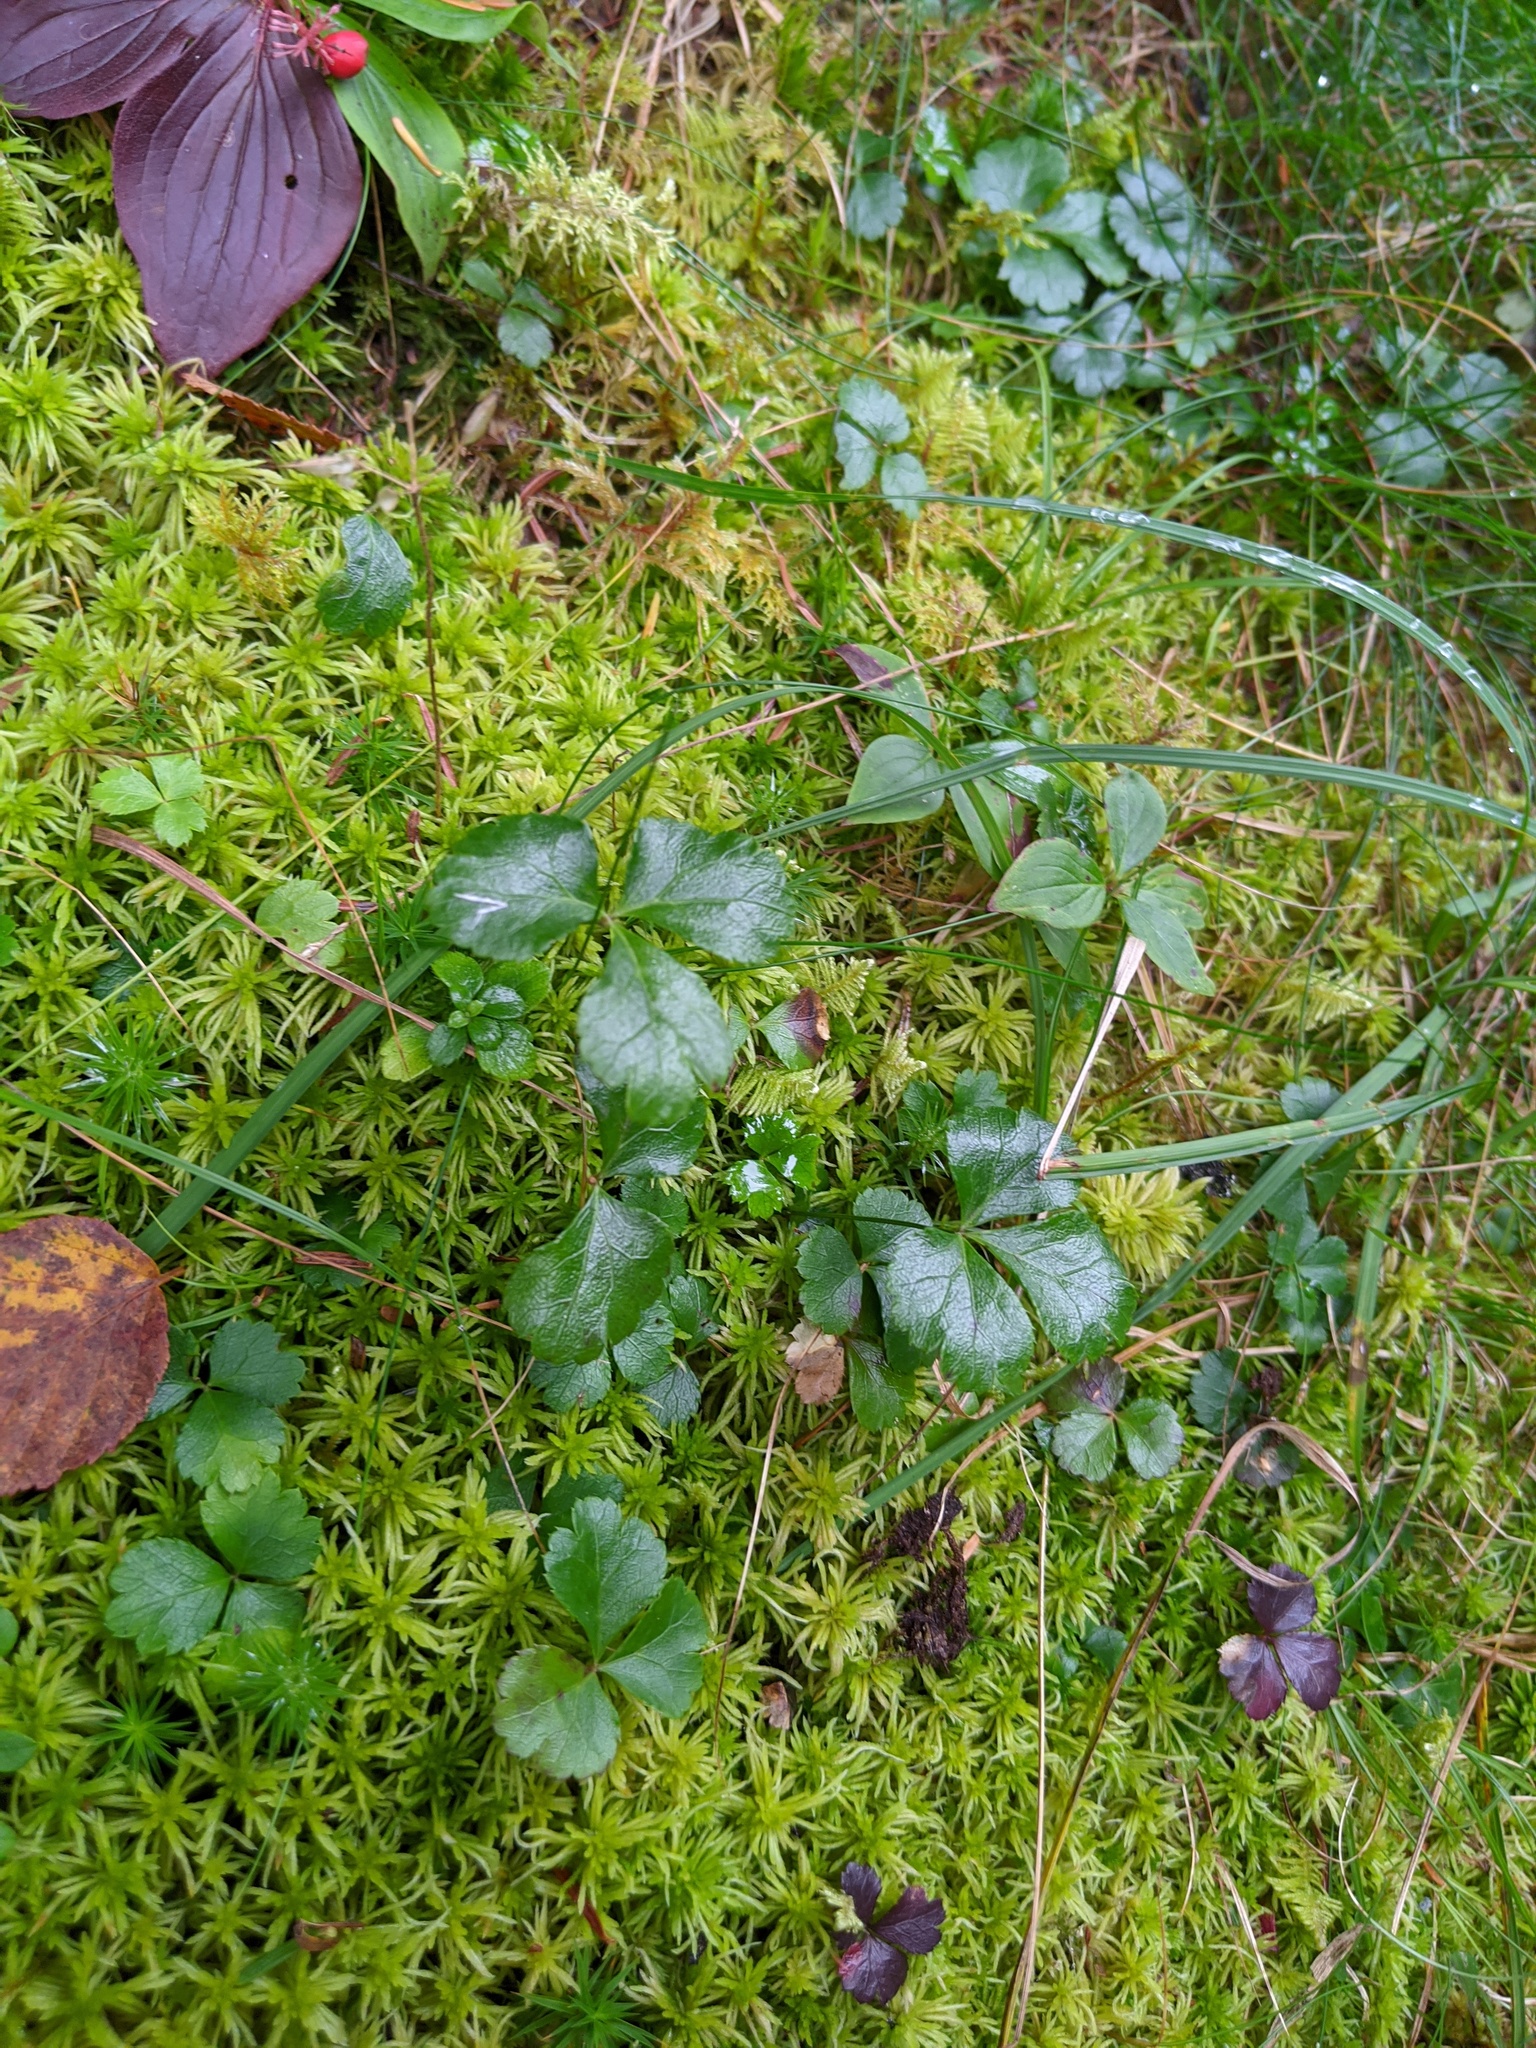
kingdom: Plantae
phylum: Tracheophyta
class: Magnoliopsida
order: Ranunculales
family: Ranunculaceae
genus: Coptis
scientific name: Coptis trifolia
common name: Canker-root
